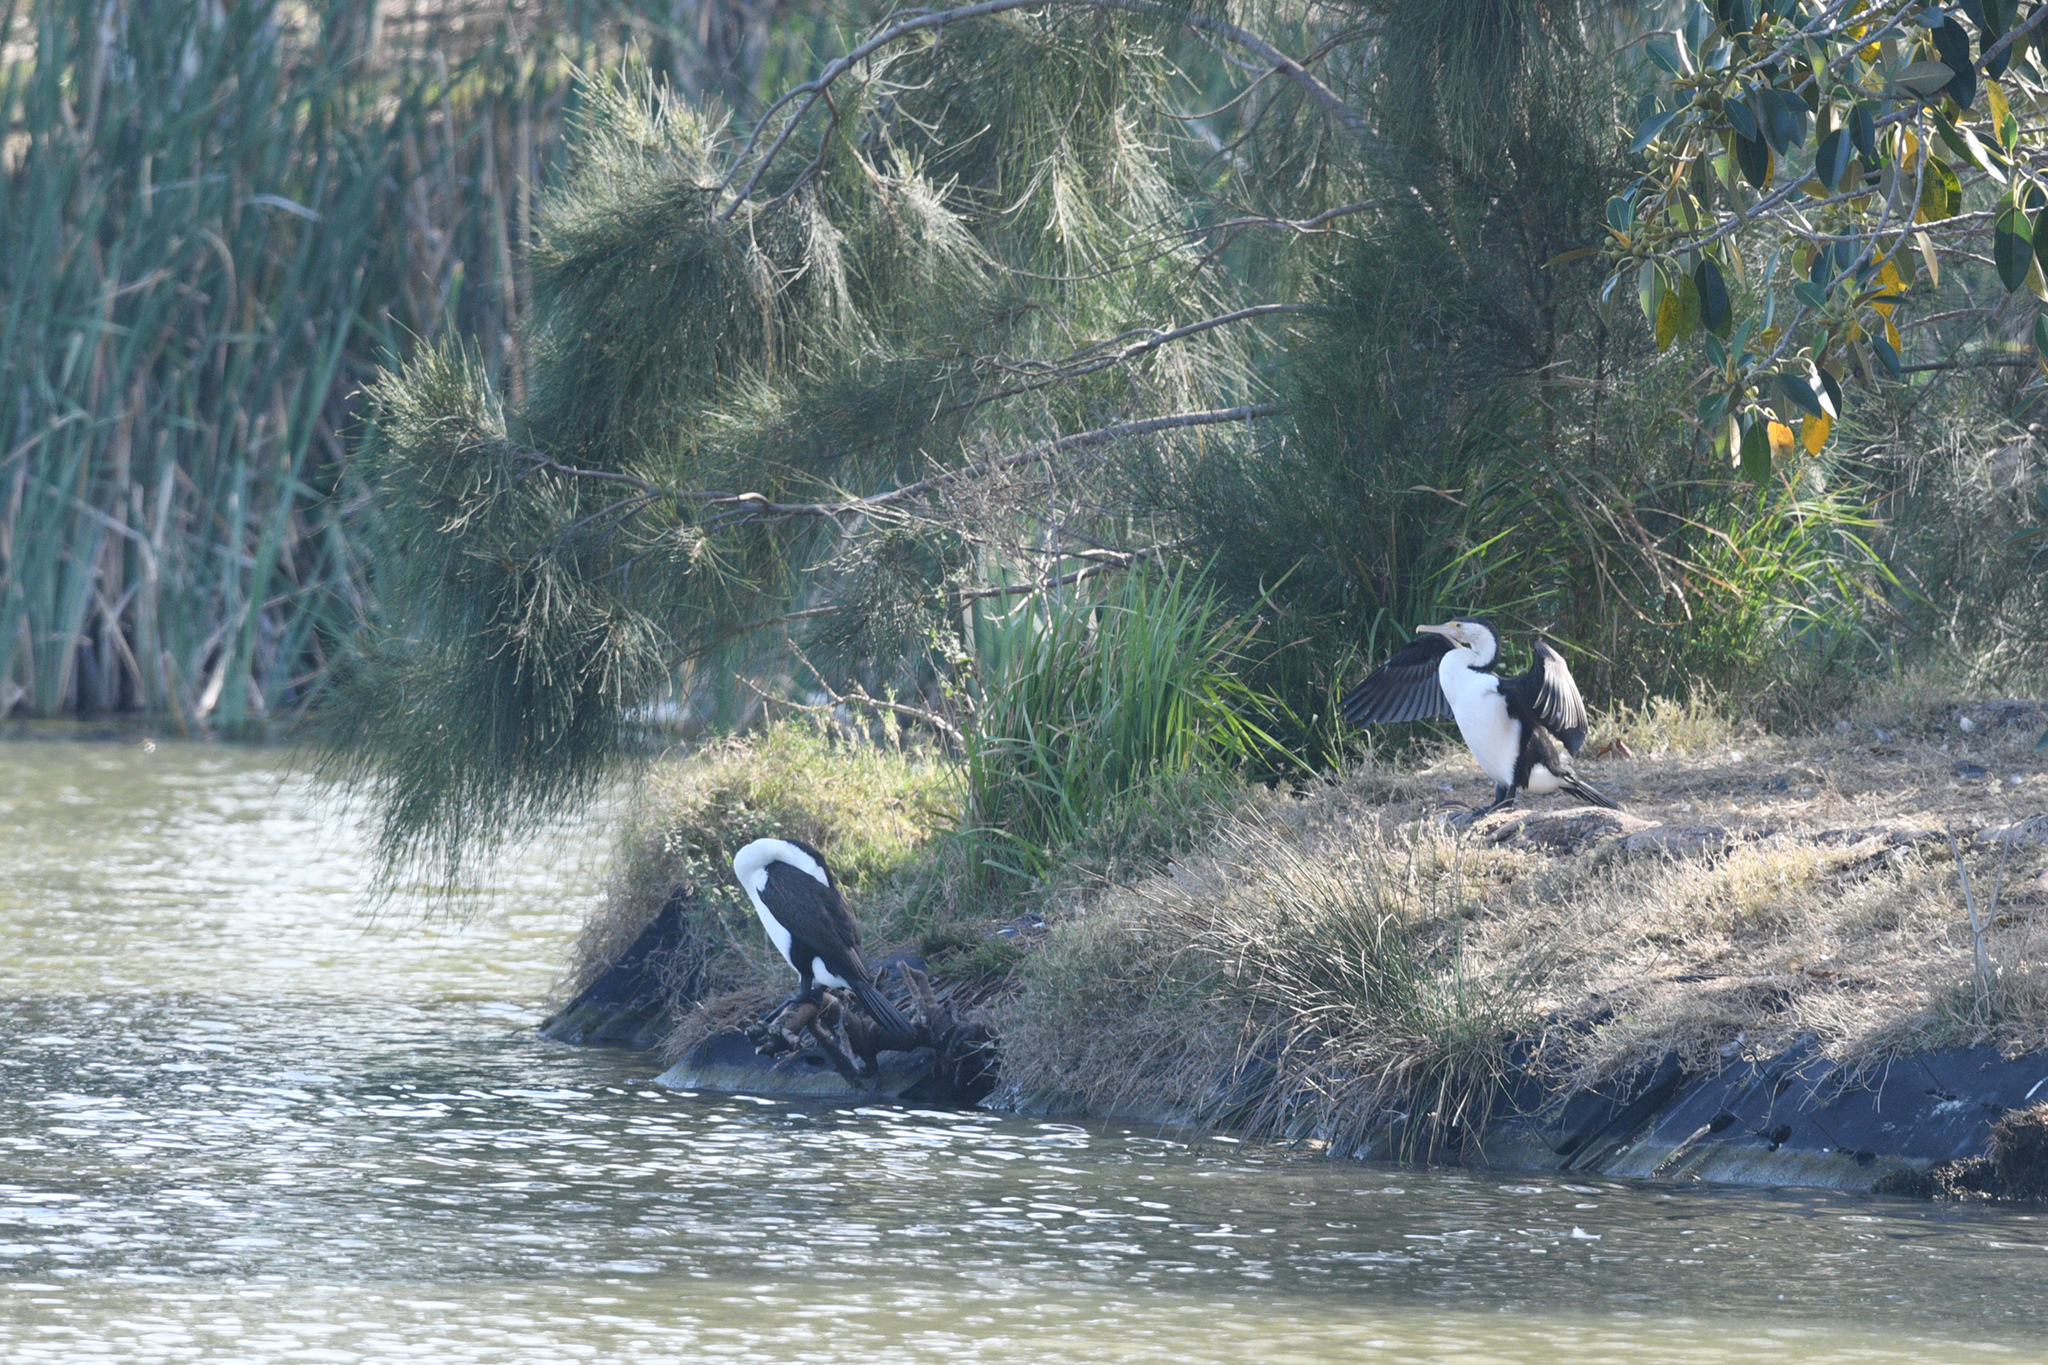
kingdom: Animalia
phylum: Chordata
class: Aves
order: Suliformes
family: Phalacrocoracidae
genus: Phalacrocorax
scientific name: Phalacrocorax varius
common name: Pied cormorant
